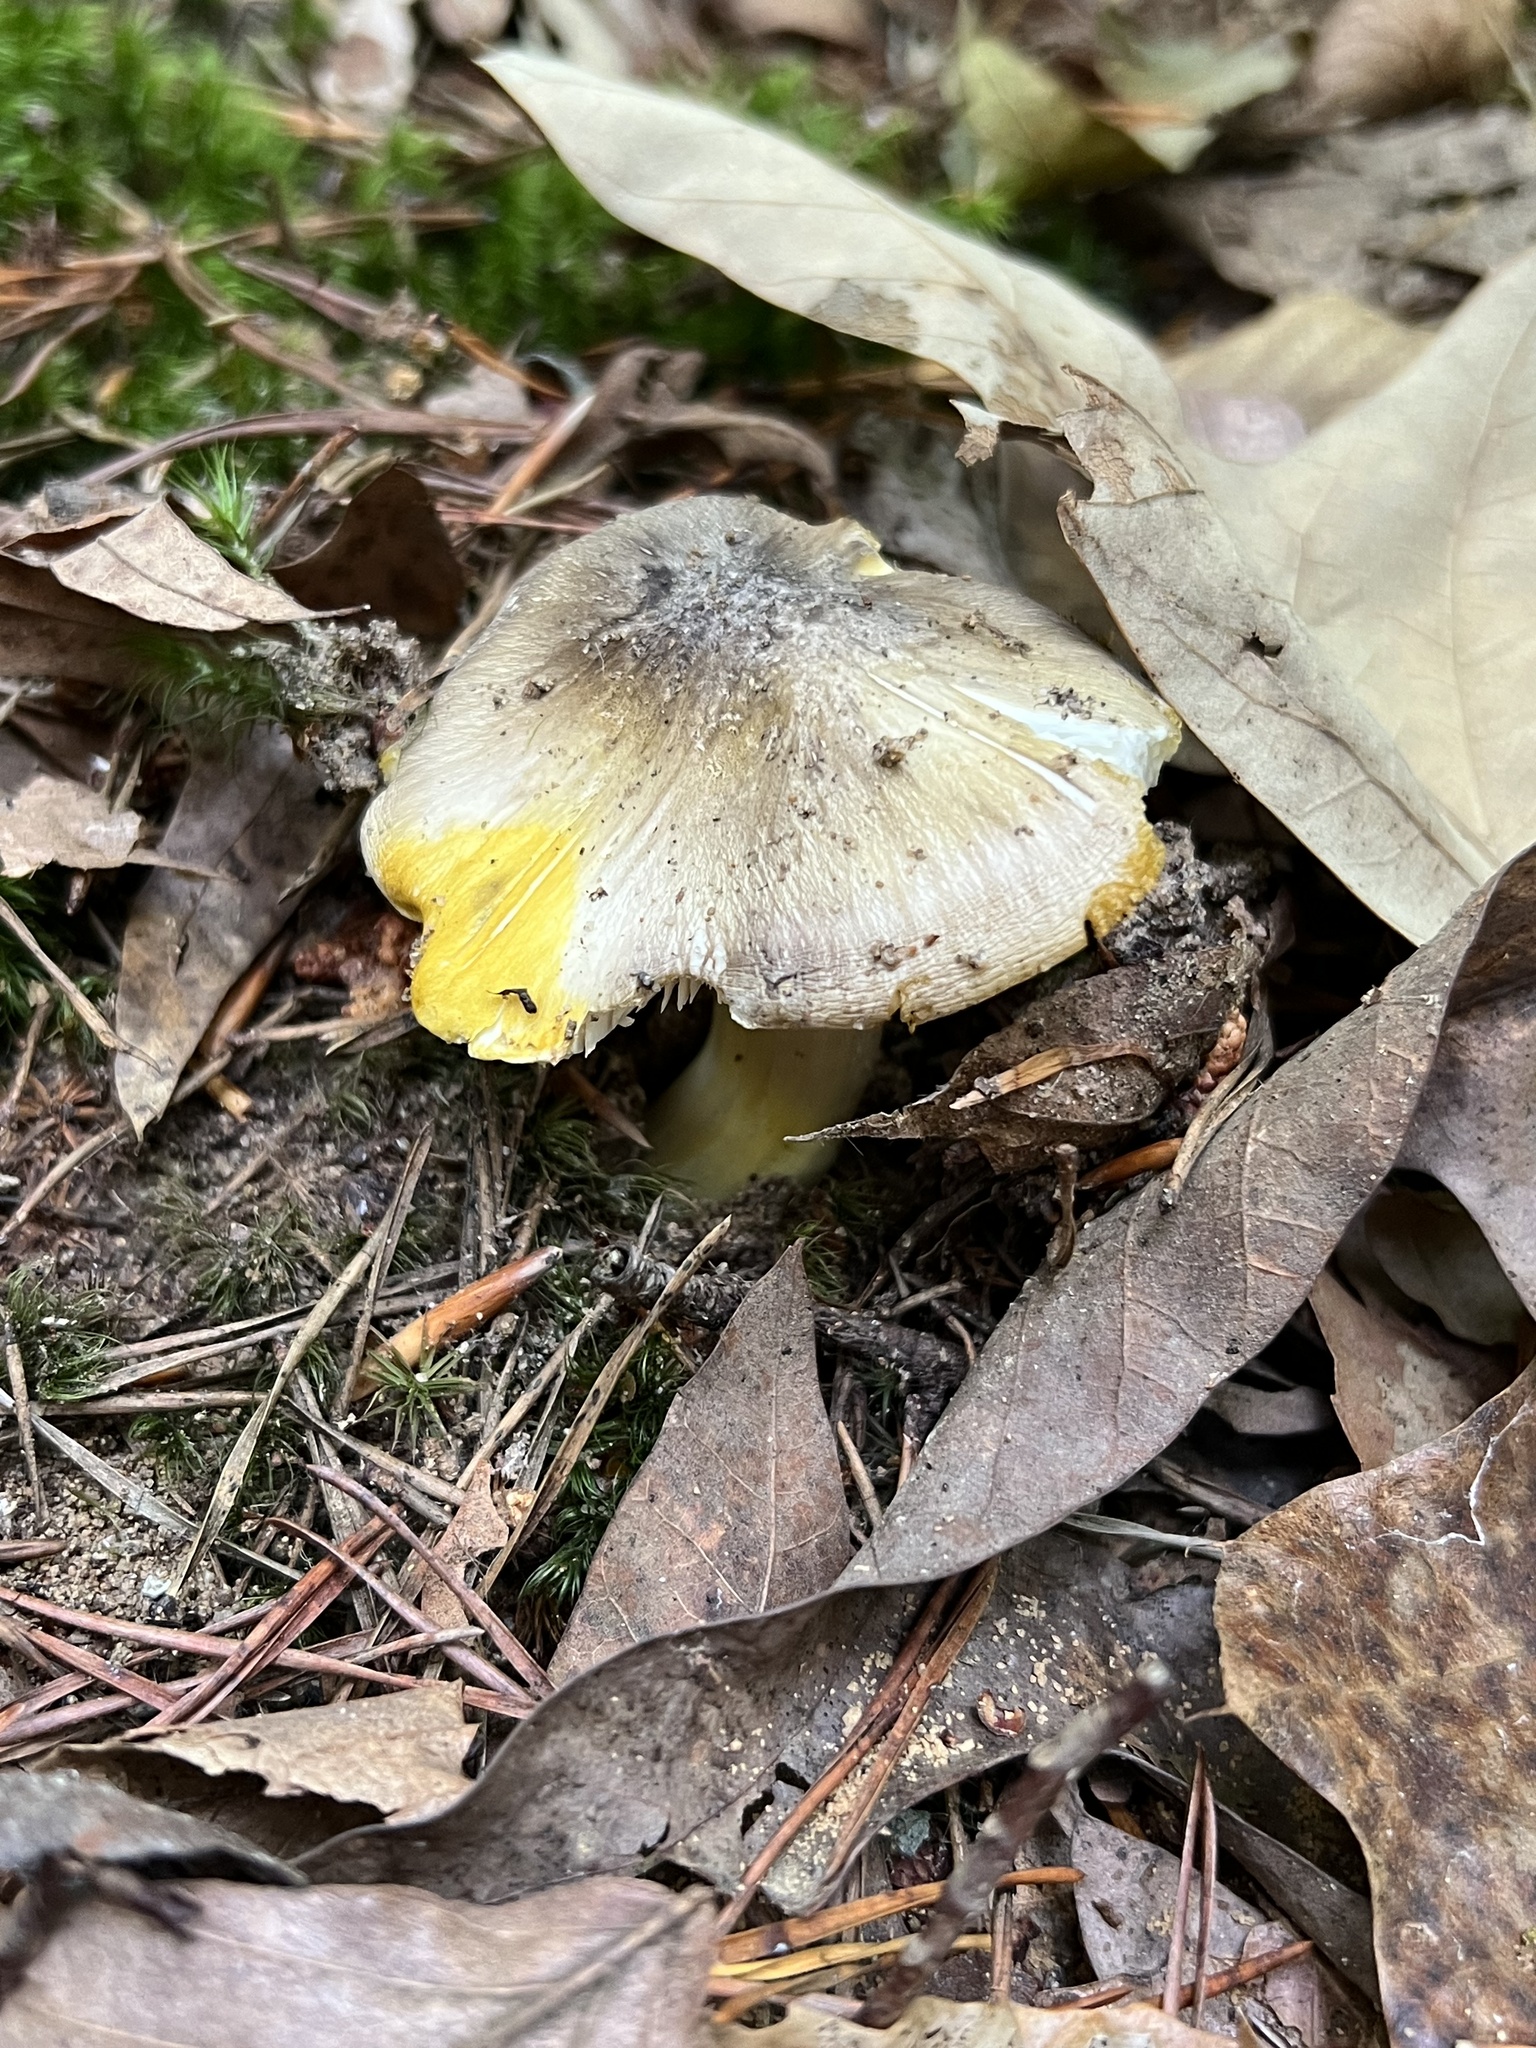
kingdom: Fungi
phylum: Basidiomycota
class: Agaricomycetes
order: Agaricales
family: Tricholomataceae
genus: Melanoleuca
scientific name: Melanoleuca floridana
